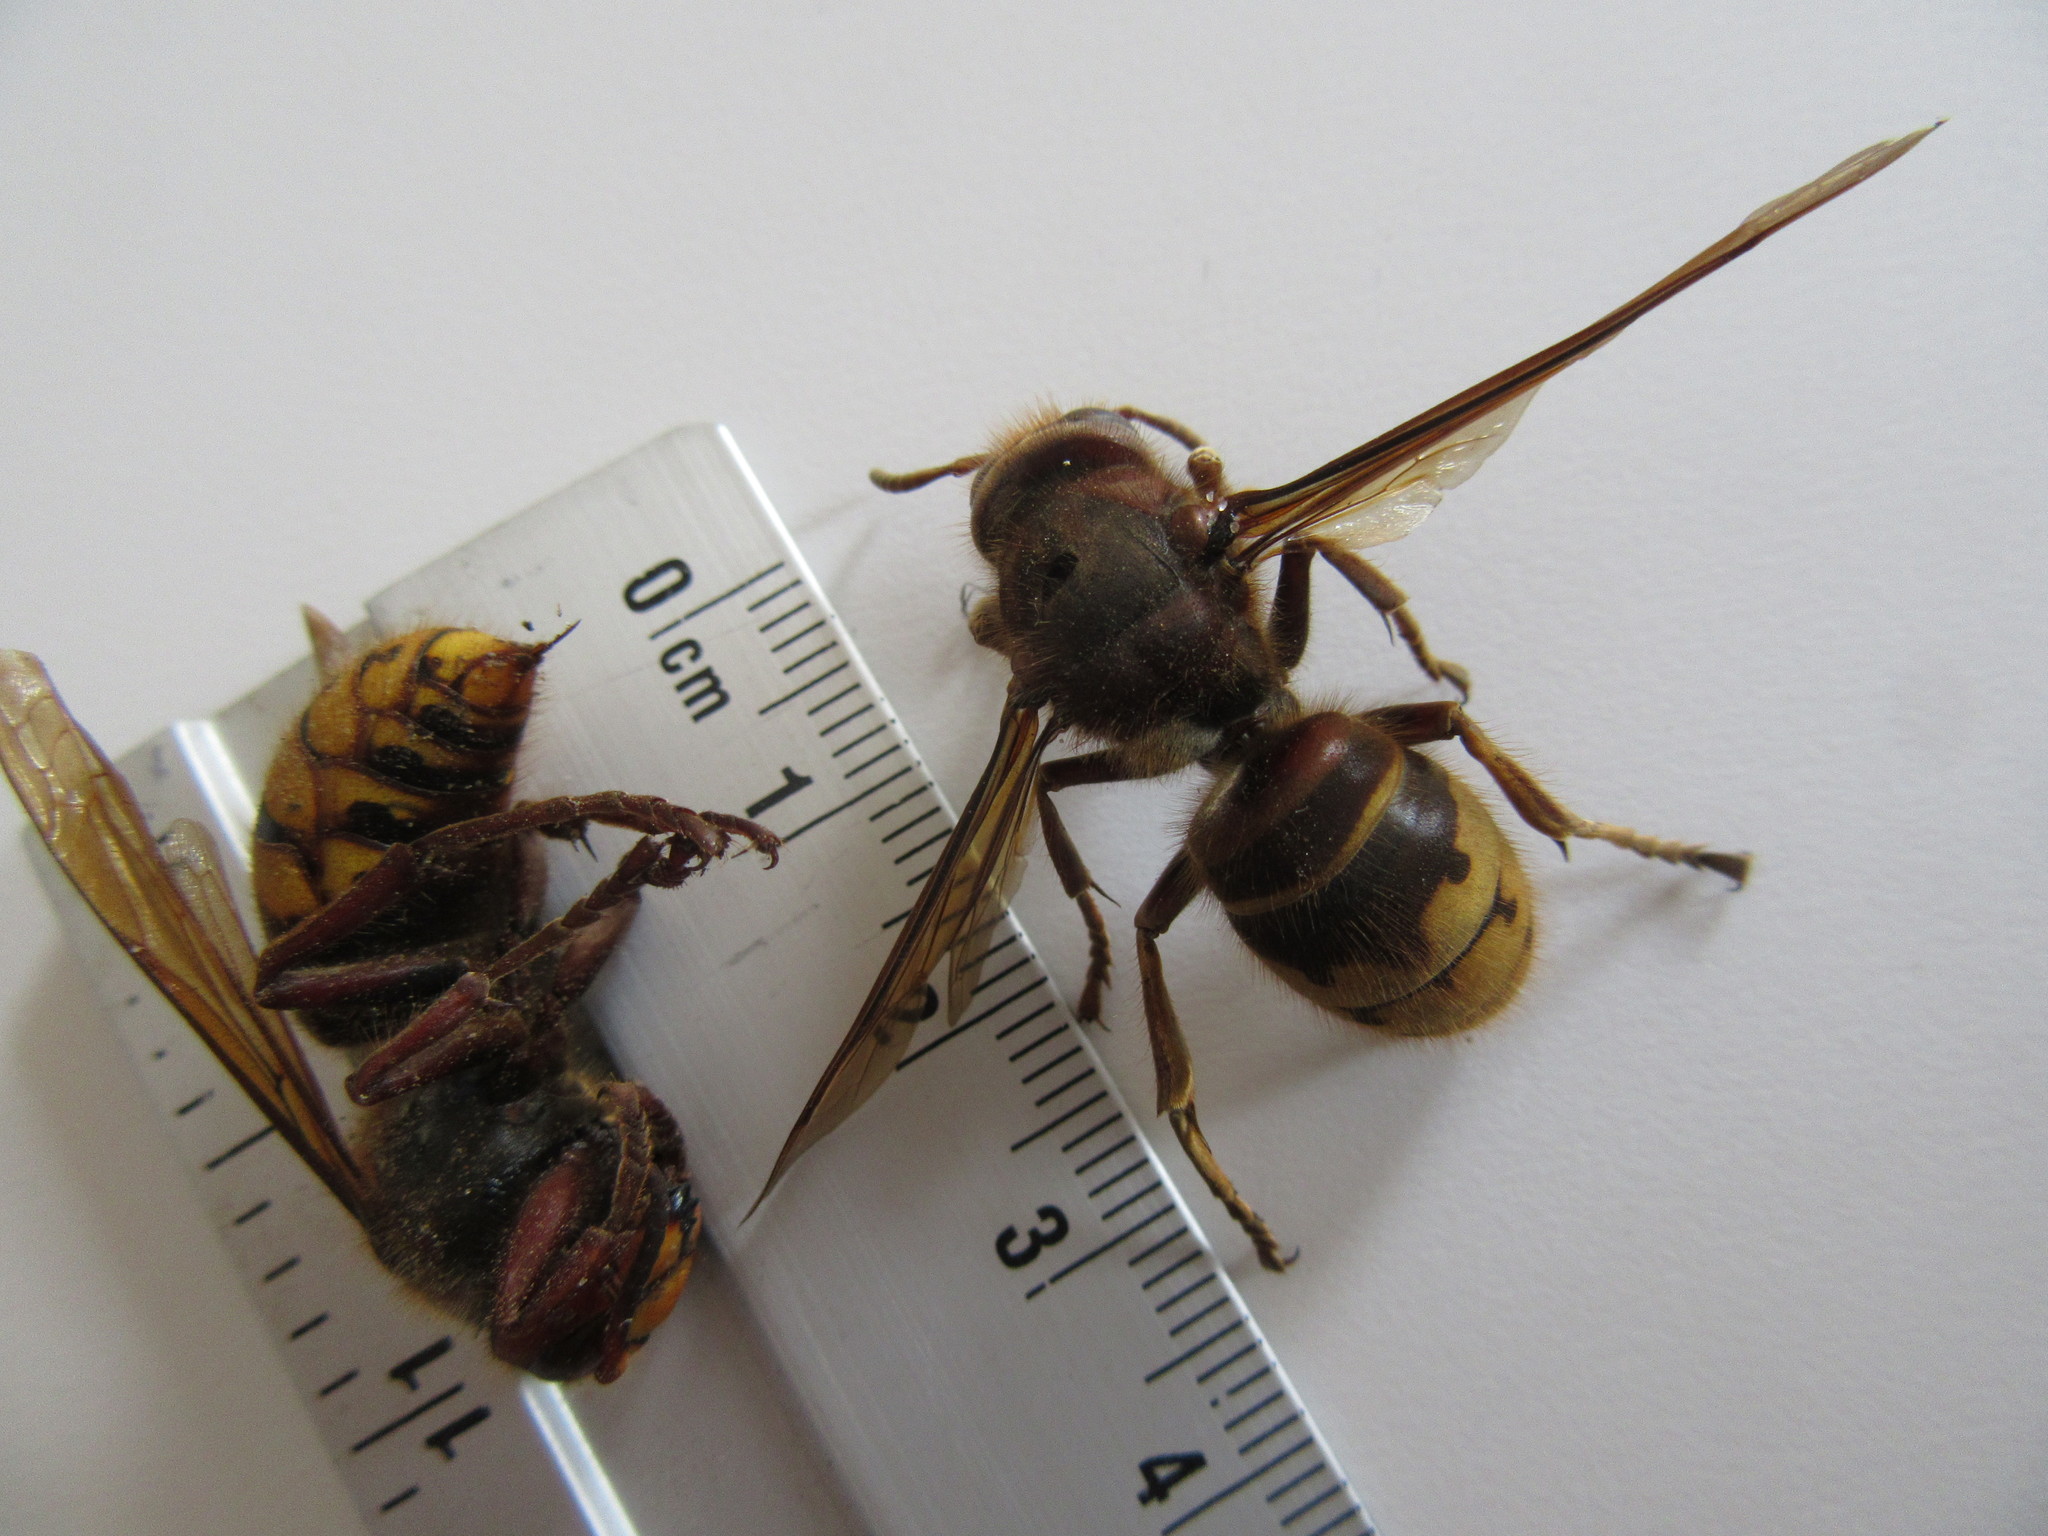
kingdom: Animalia
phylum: Arthropoda
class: Insecta
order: Hymenoptera
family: Vespidae
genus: Vespa
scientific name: Vespa crabro
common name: Hornet
